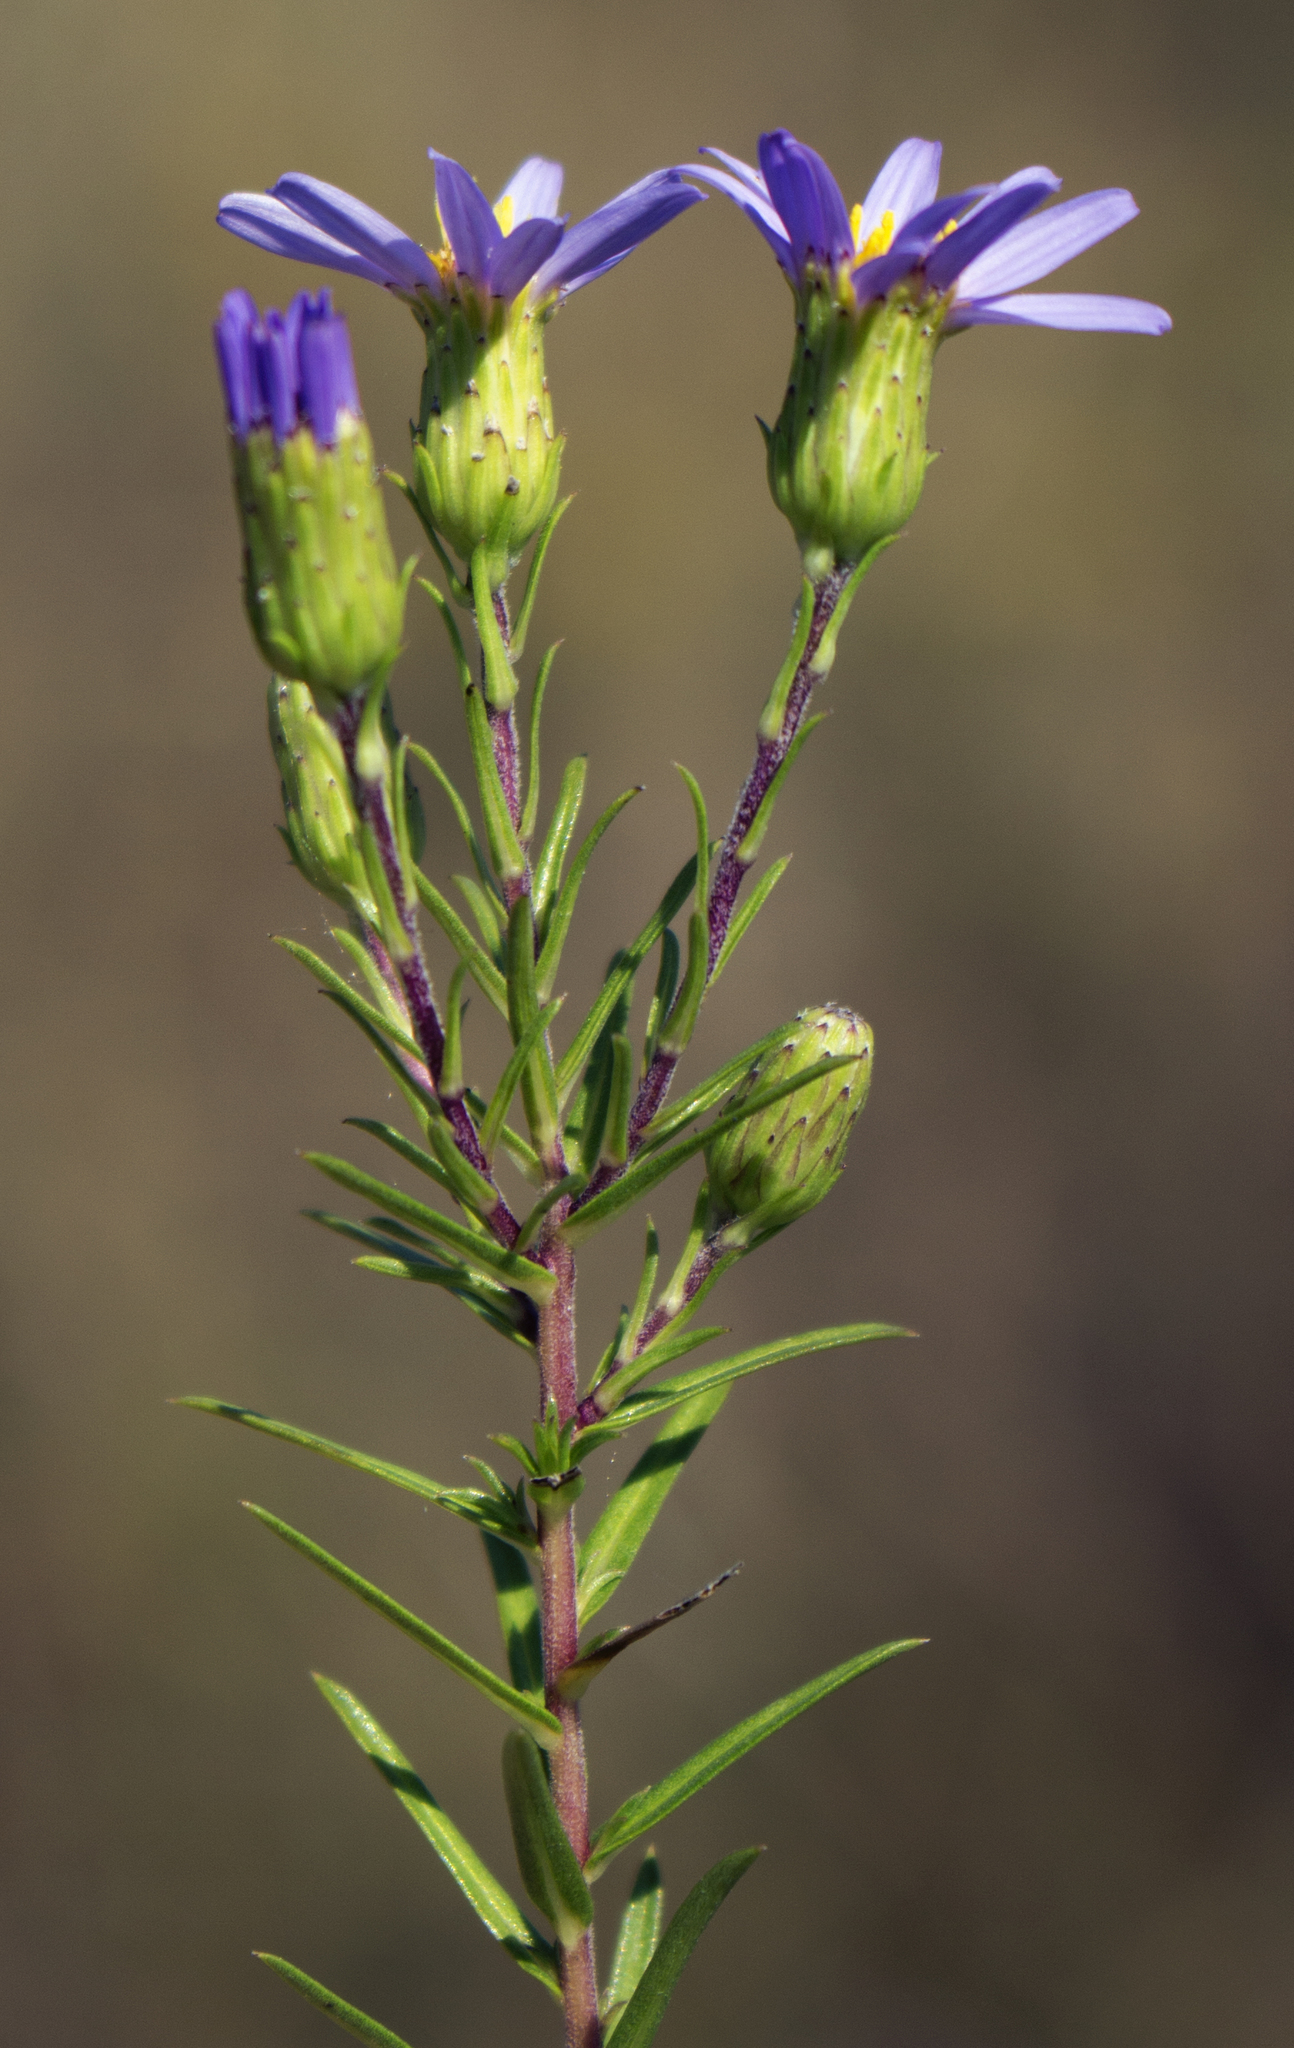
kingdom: Plantae
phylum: Tracheophyta
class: Magnoliopsida
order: Asterales
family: Asteraceae
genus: Ionactis
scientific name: Ionactis linariifolia
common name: Flax-leaf aster
